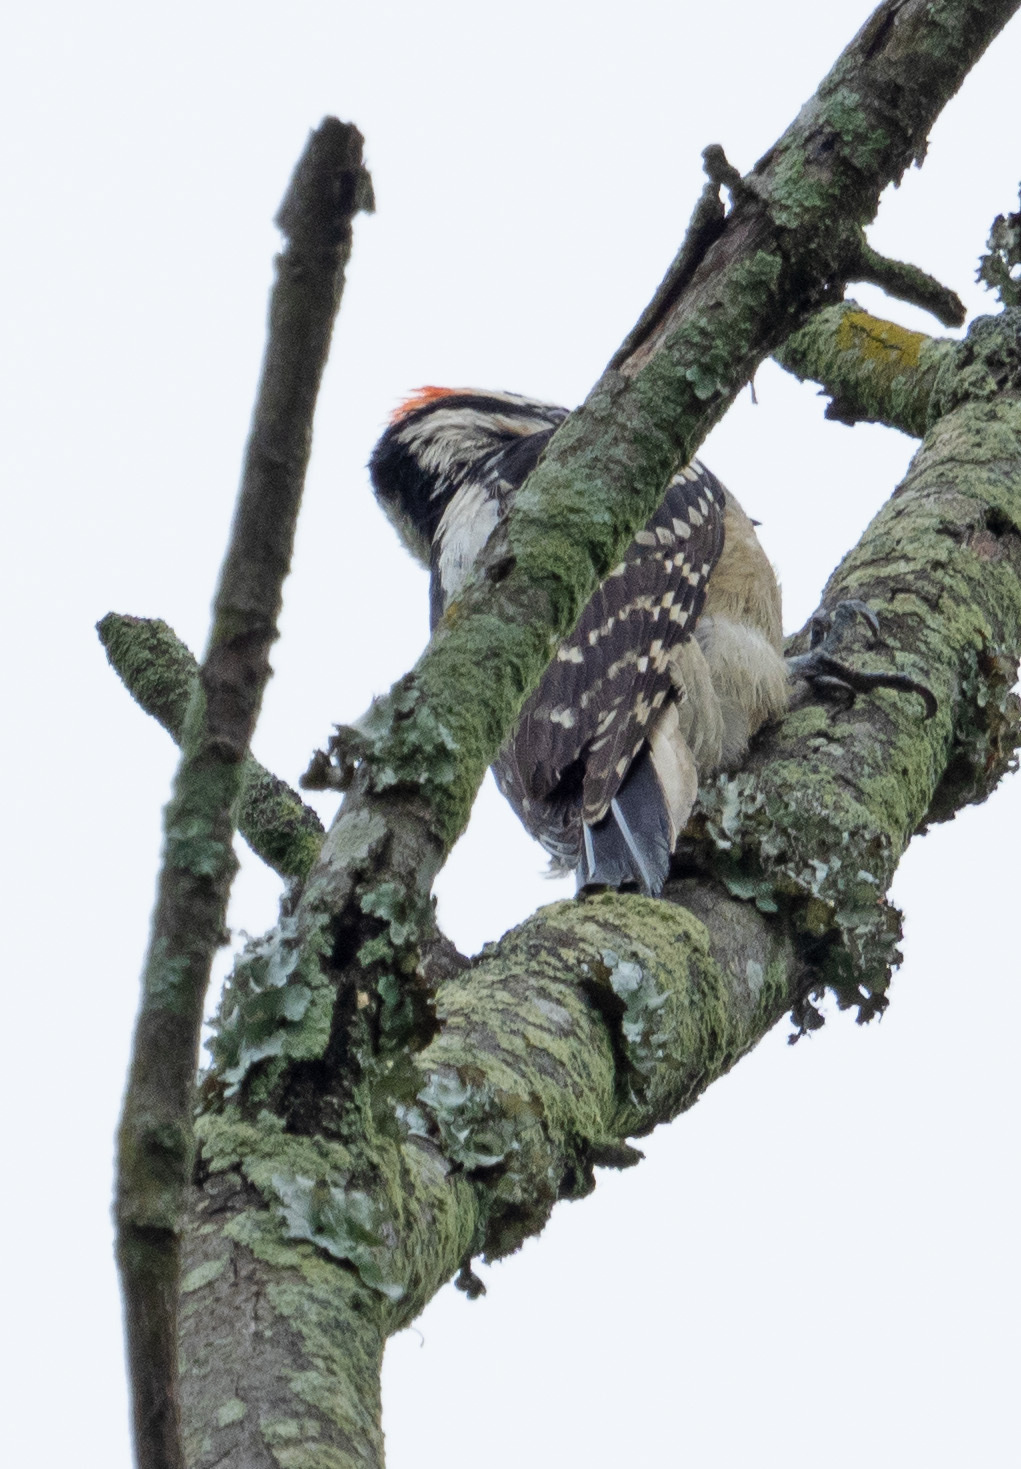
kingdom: Animalia
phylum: Chordata
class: Aves
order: Piciformes
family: Picidae
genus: Dryobates
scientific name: Dryobates pubescens
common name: Downy woodpecker
